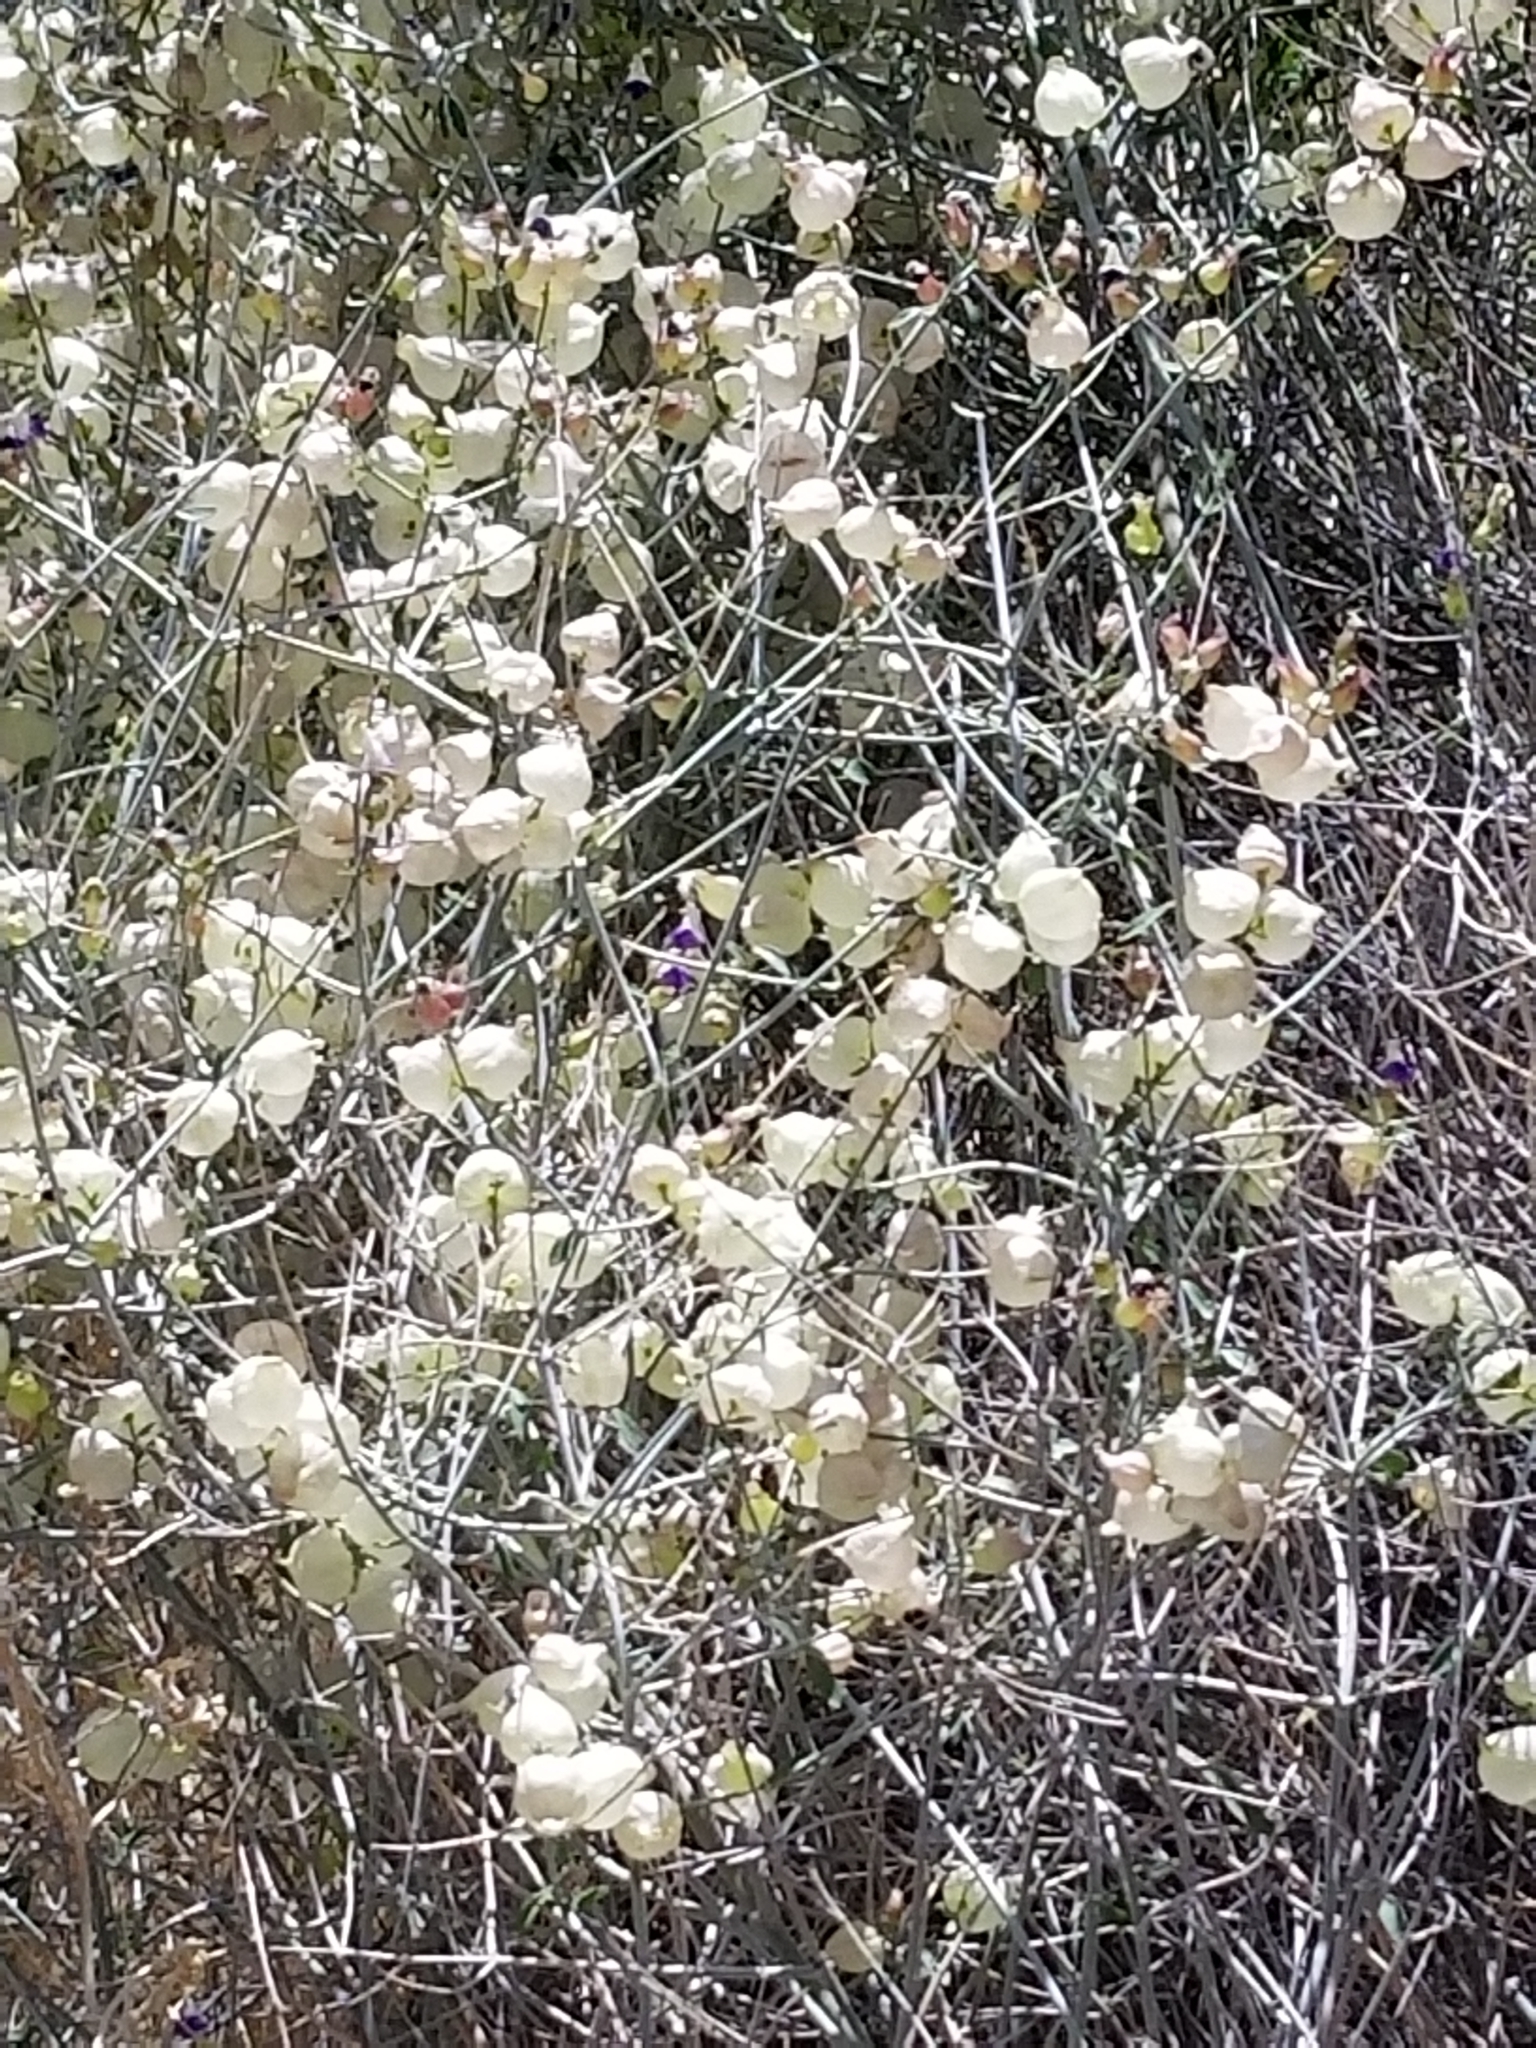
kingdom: Plantae
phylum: Tracheophyta
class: Magnoliopsida
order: Lamiales
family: Lamiaceae
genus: Scutellaria
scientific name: Scutellaria mexicana
